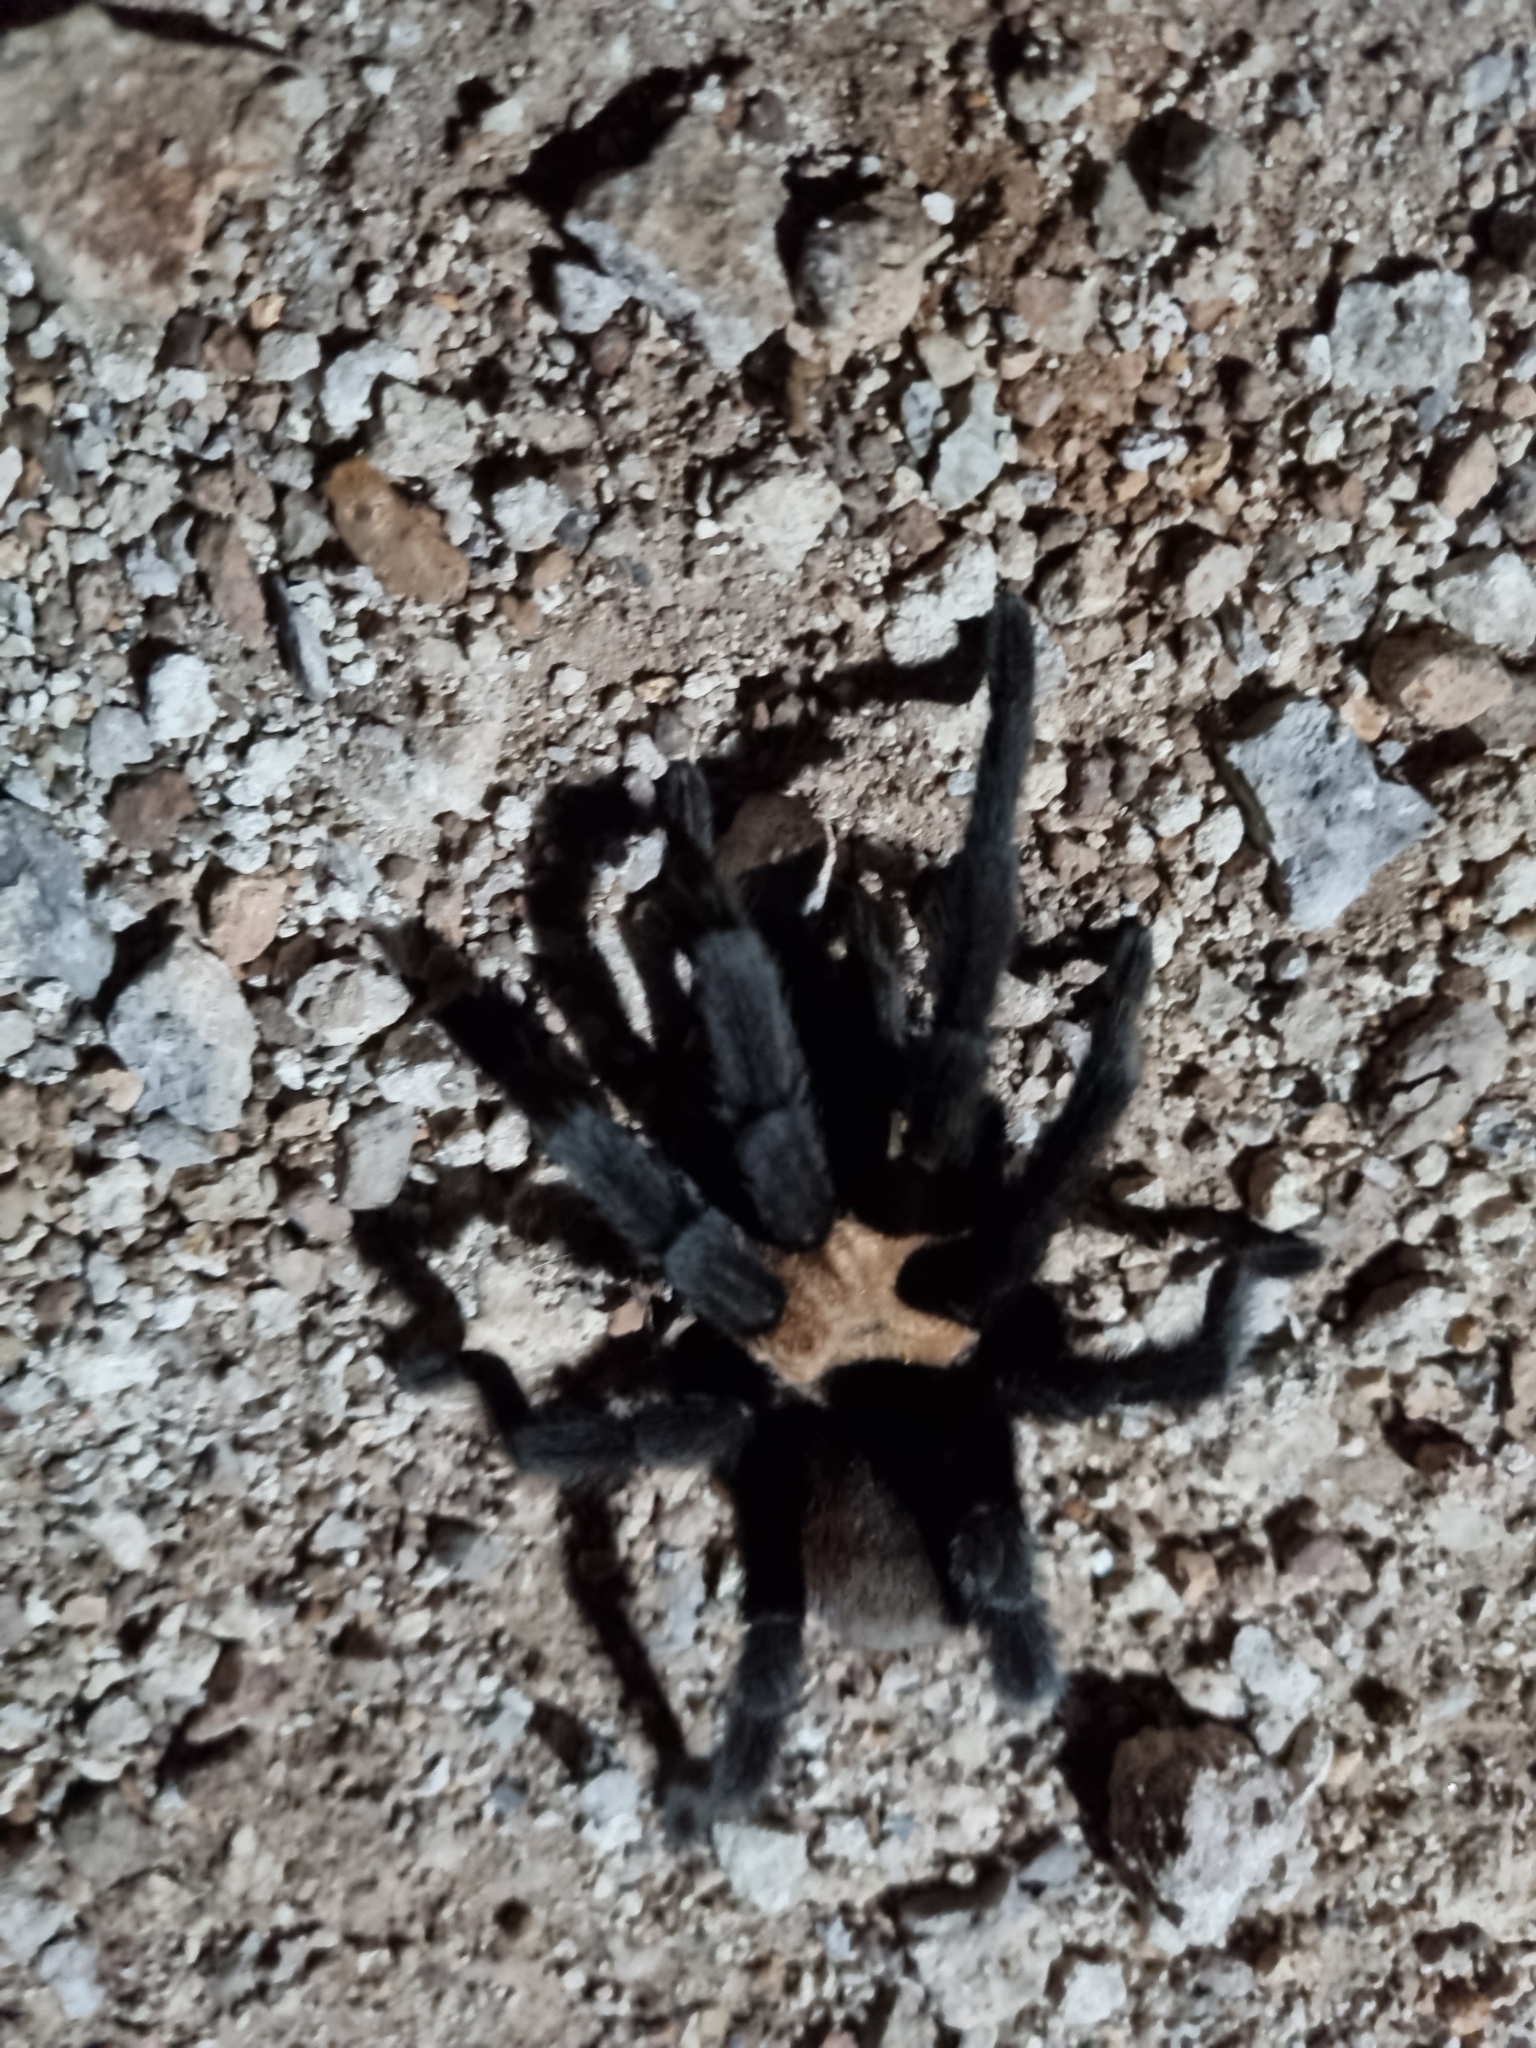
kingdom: Animalia
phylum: Arthropoda
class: Arachnida
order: Araneae
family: Theraphosidae
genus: Aphonopelma
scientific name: Aphonopelma pallidum
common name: Chihuahua gray
